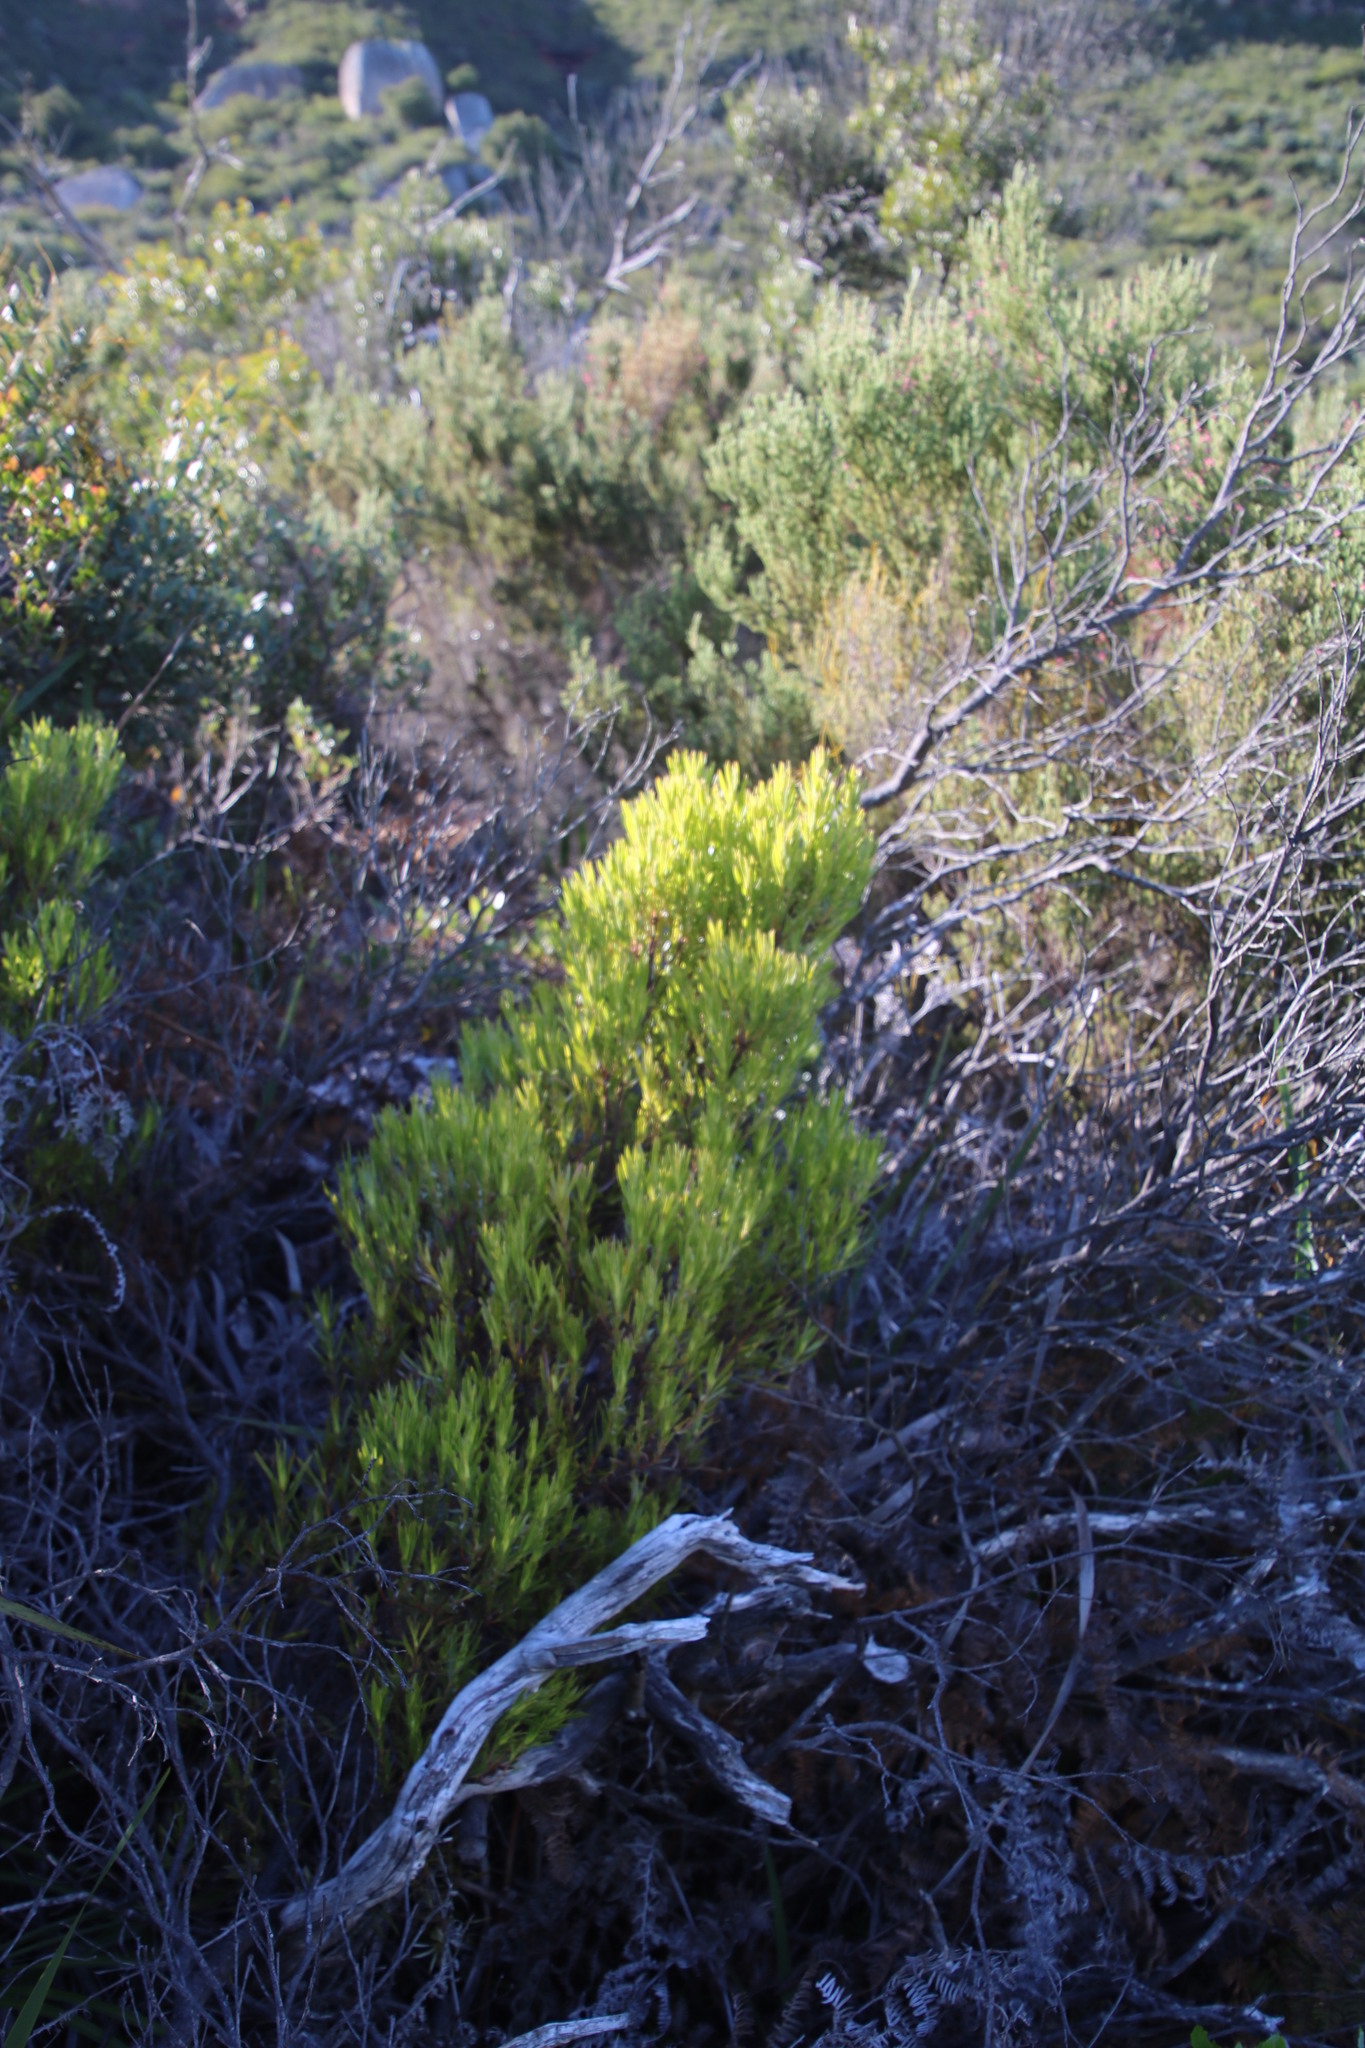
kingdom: Plantae
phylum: Tracheophyta
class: Magnoliopsida
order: Proteales
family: Proteaceae
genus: Leucadendron
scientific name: Leucadendron salignum
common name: Common sunshine conebush
